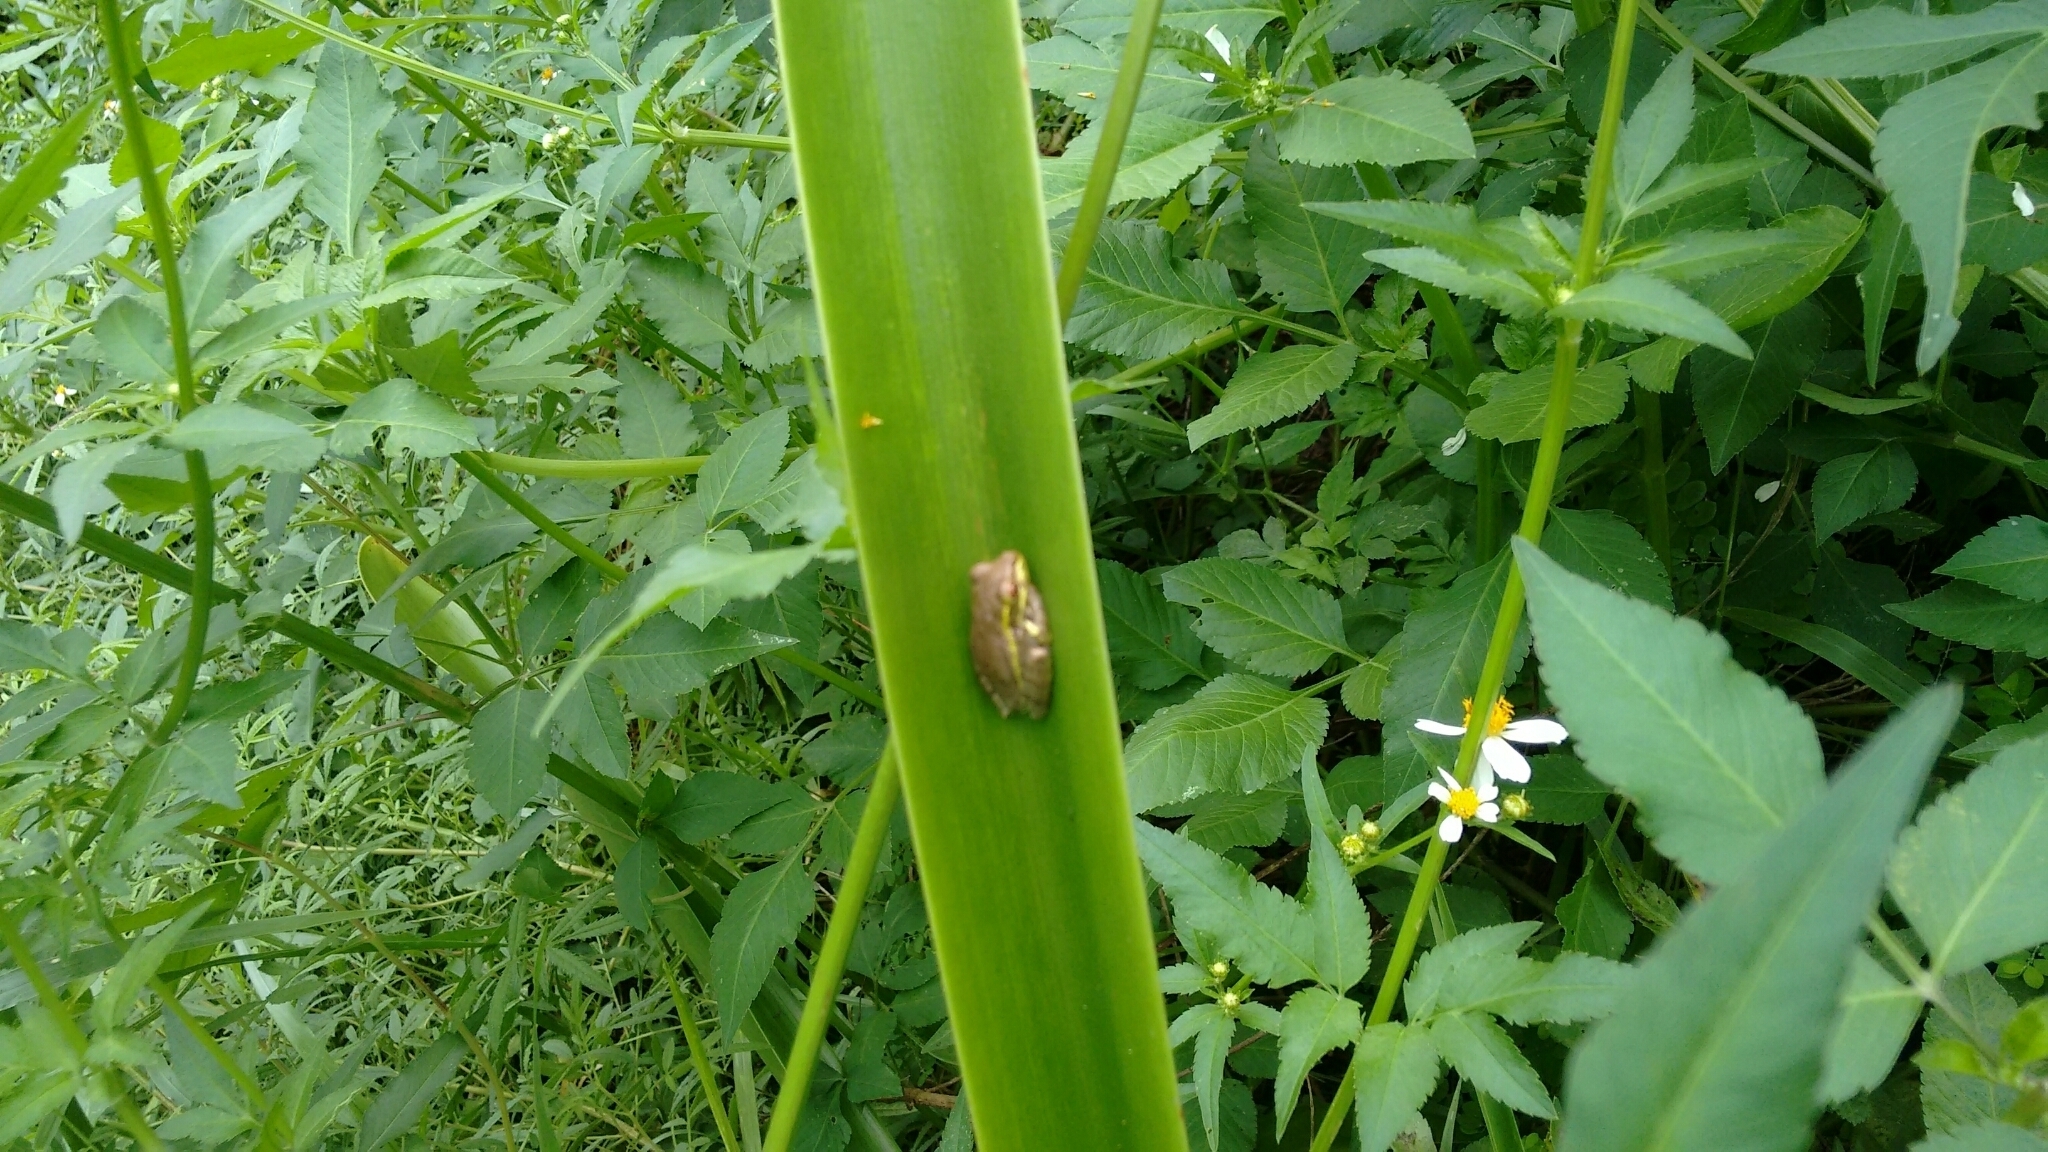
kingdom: Animalia
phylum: Chordata
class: Amphibia
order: Anura
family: Hylidae
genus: Osteopilus
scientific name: Osteopilus septentrionalis
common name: Cuban treefrog
